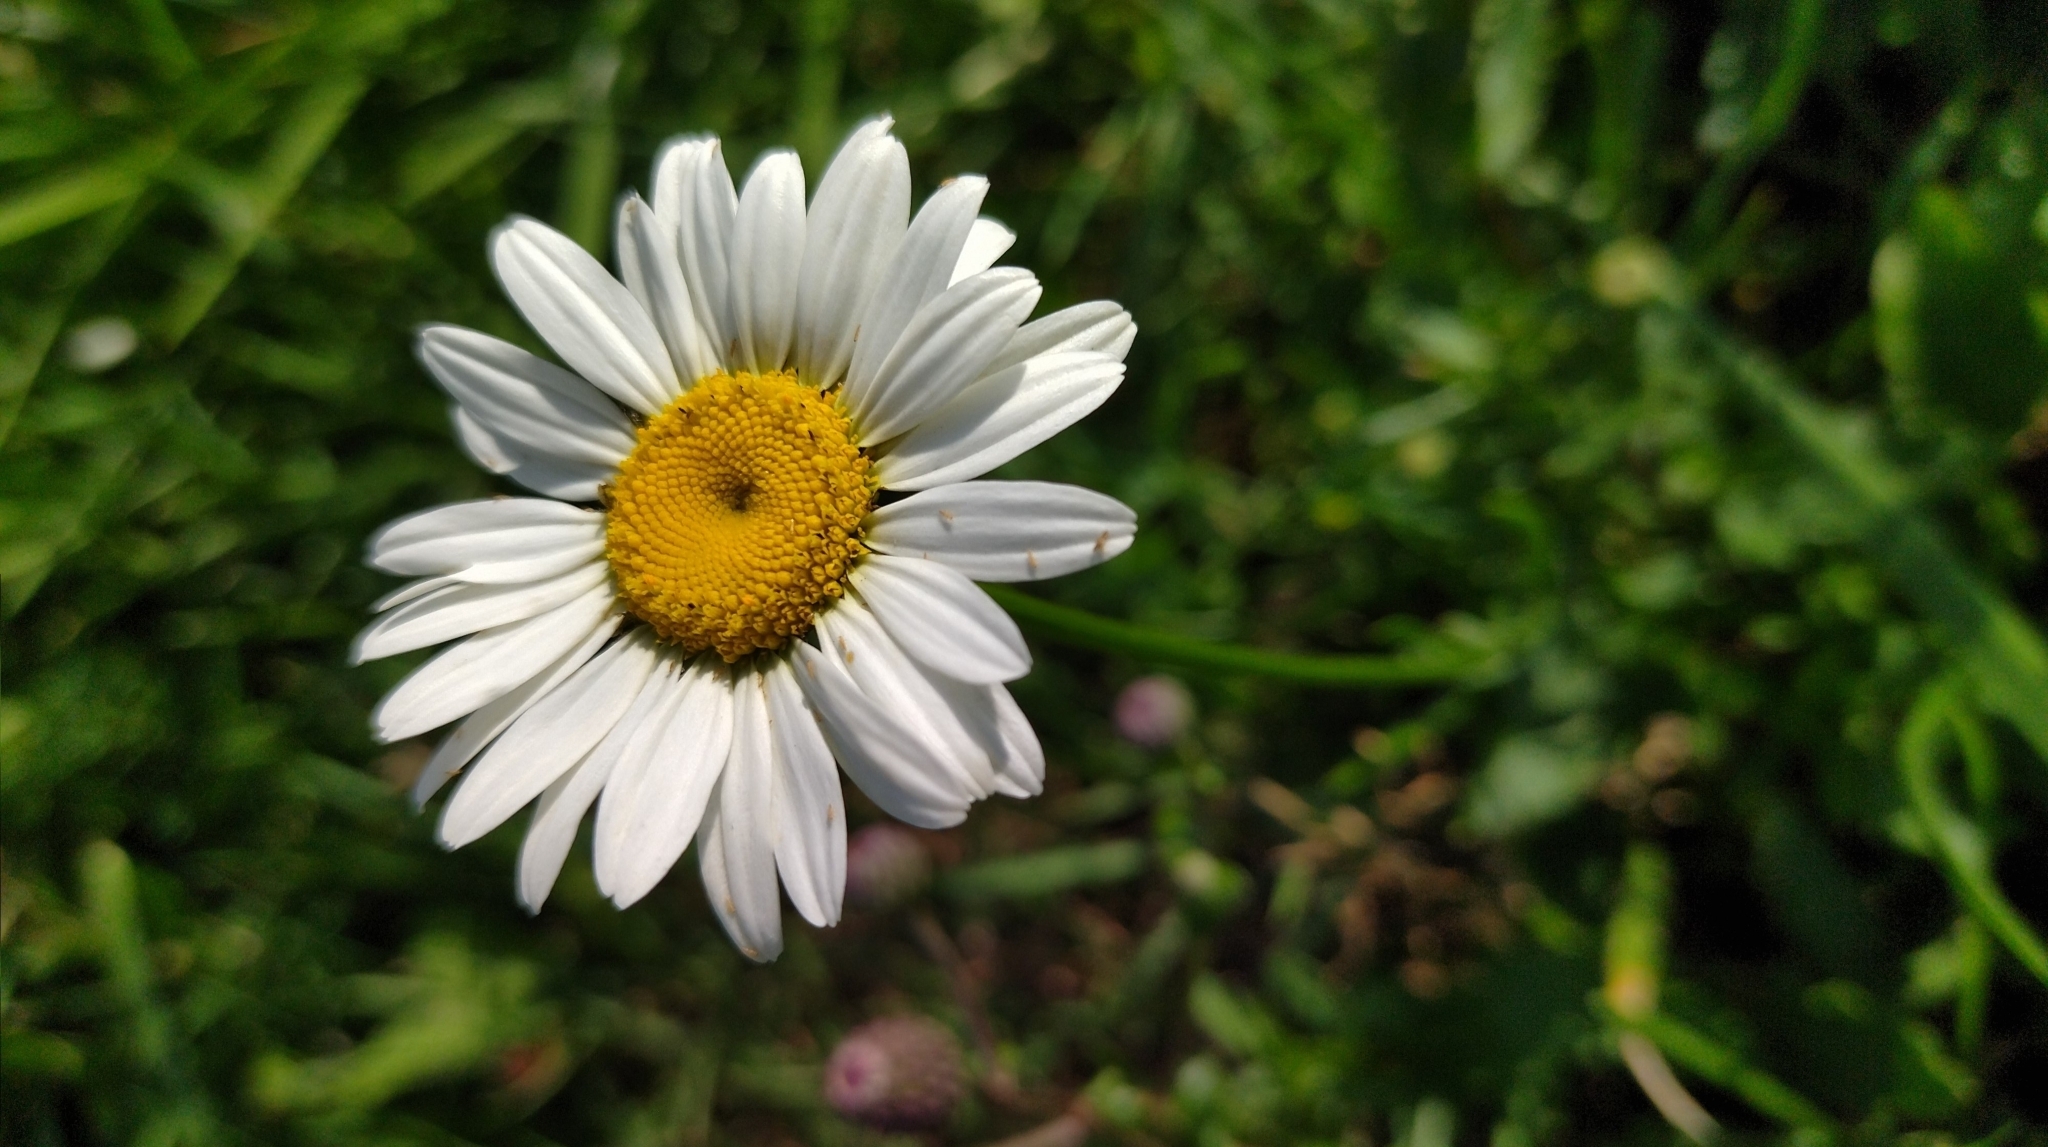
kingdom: Plantae
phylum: Tracheophyta
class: Magnoliopsida
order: Asterales
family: Asteraceae
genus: Leucanthemum
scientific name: Leucanthemum vulgare
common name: Oxeye daisy
